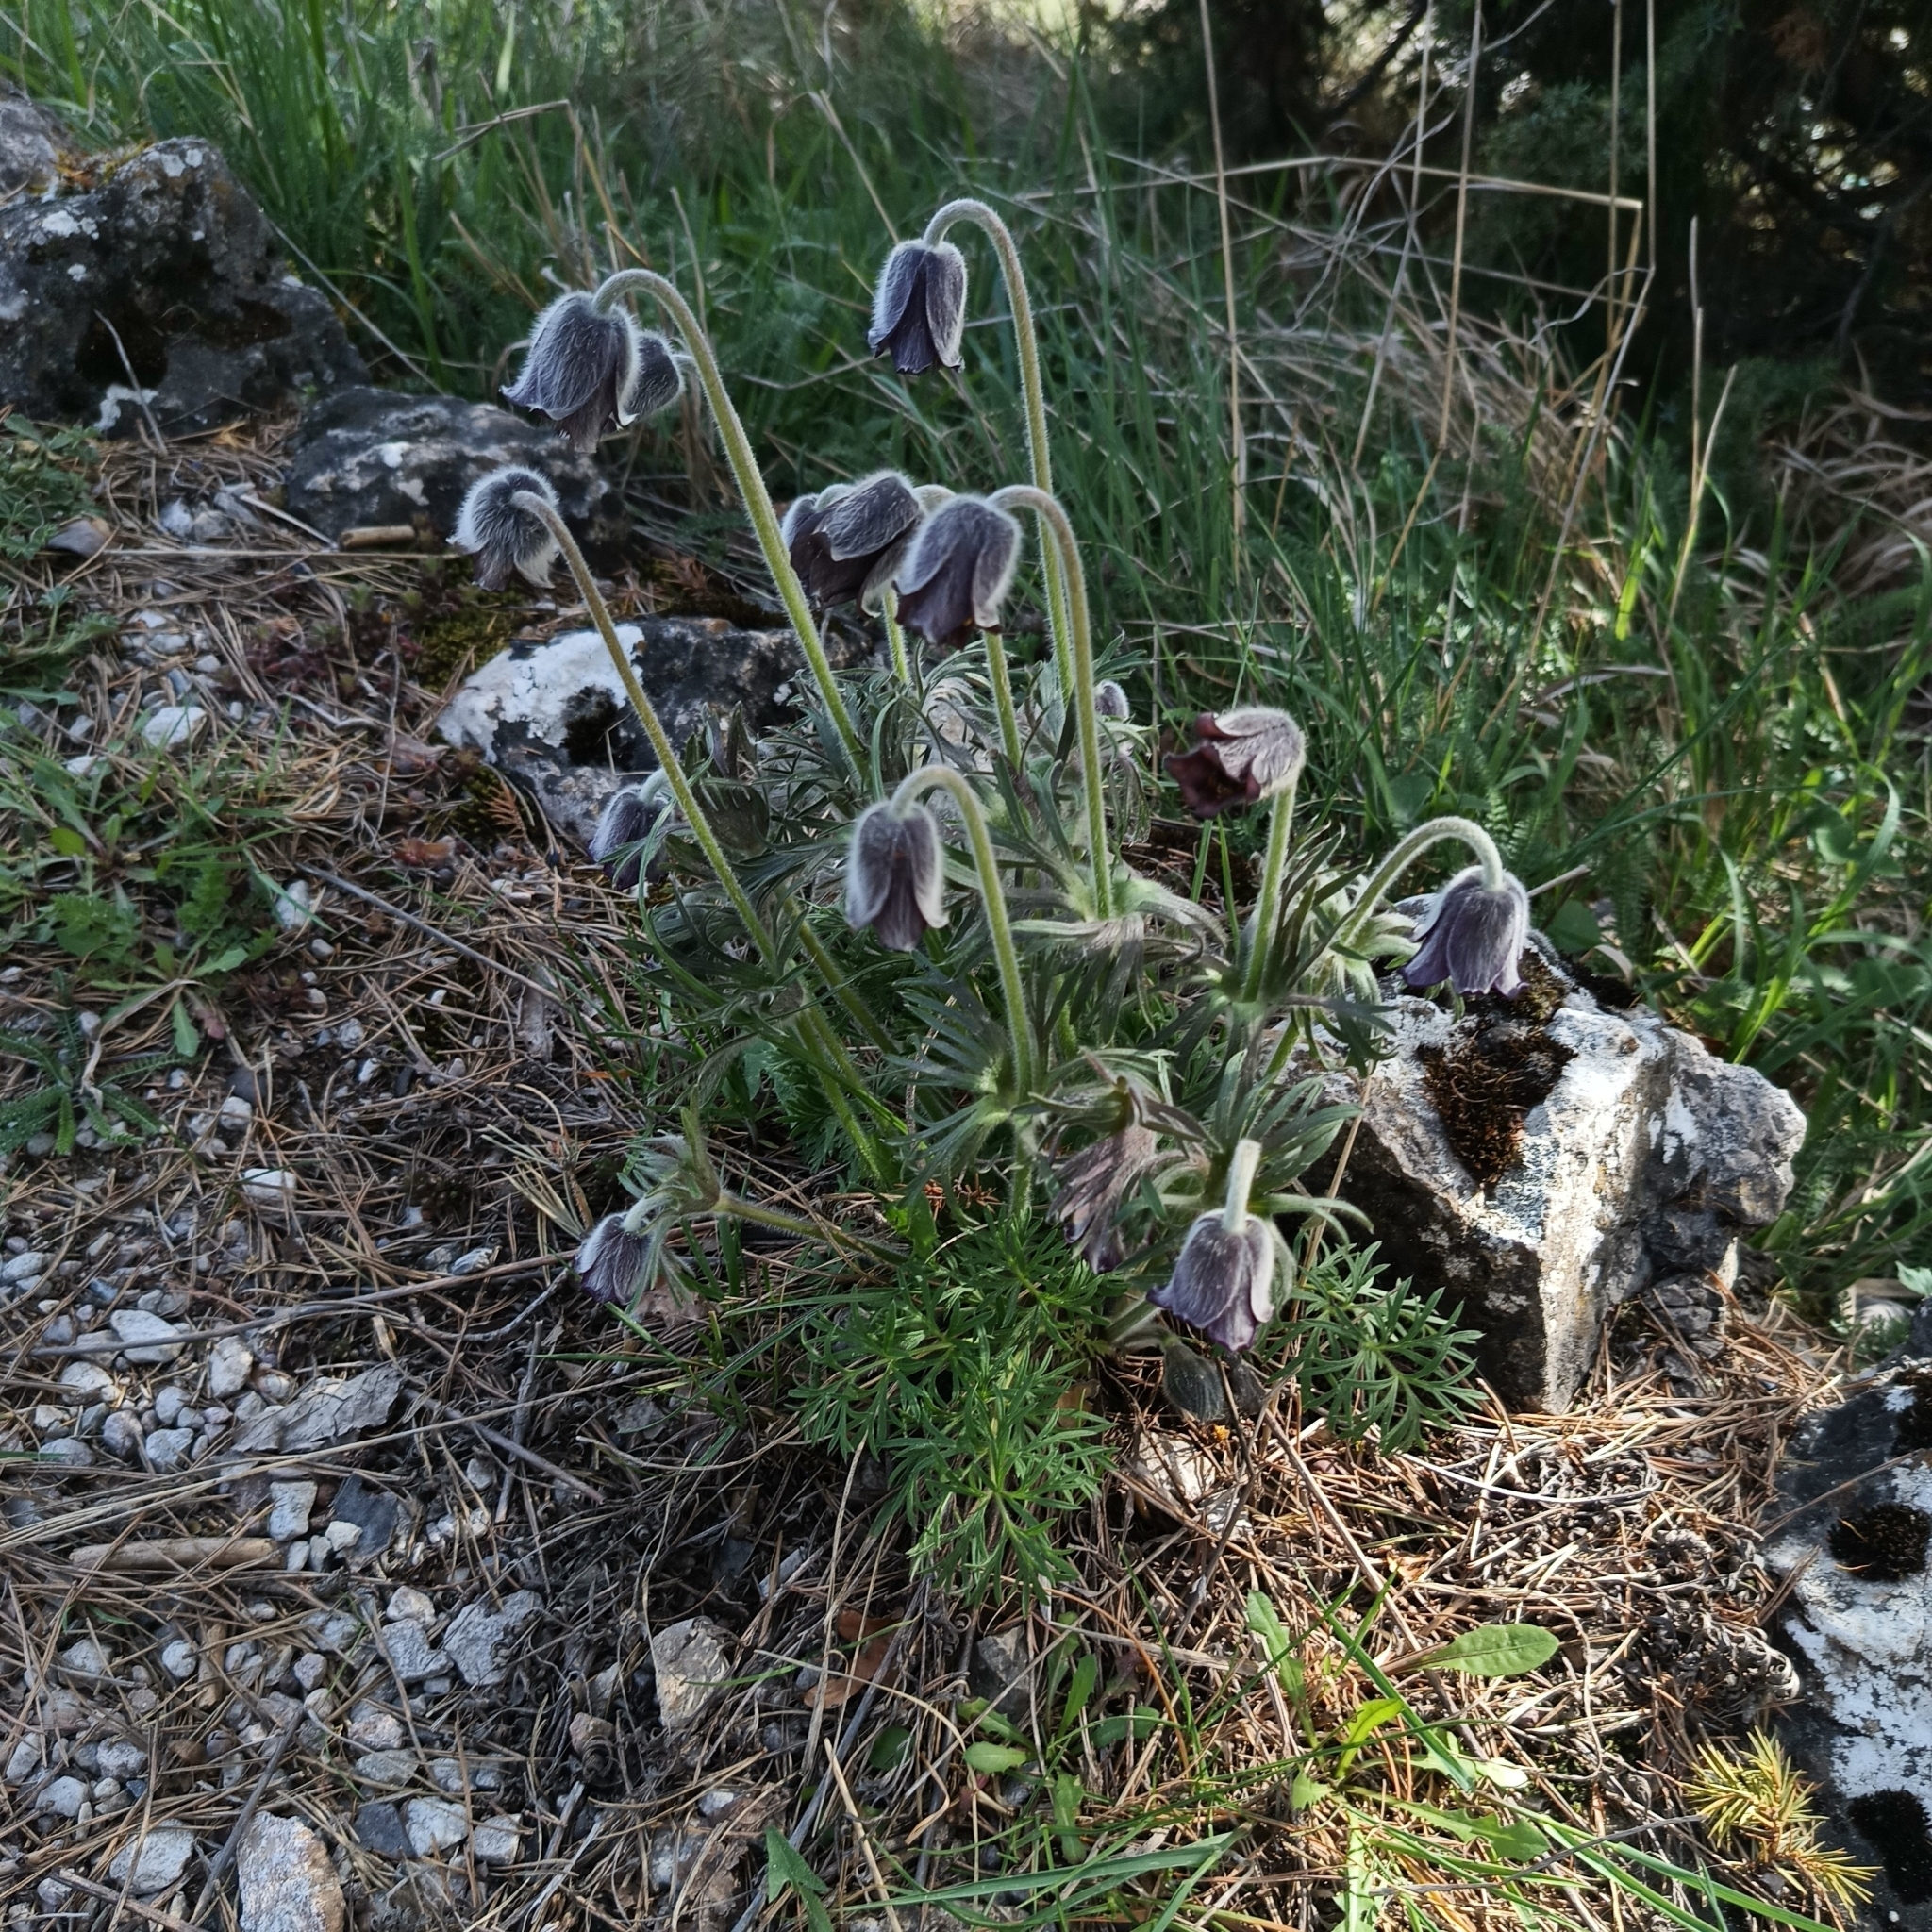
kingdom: Plantae
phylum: Tracheophyta
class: Magnoliopsida
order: Ranunculales
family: Ranunculaceae
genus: Pulsatilla
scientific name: Pulsatilla pratensis
